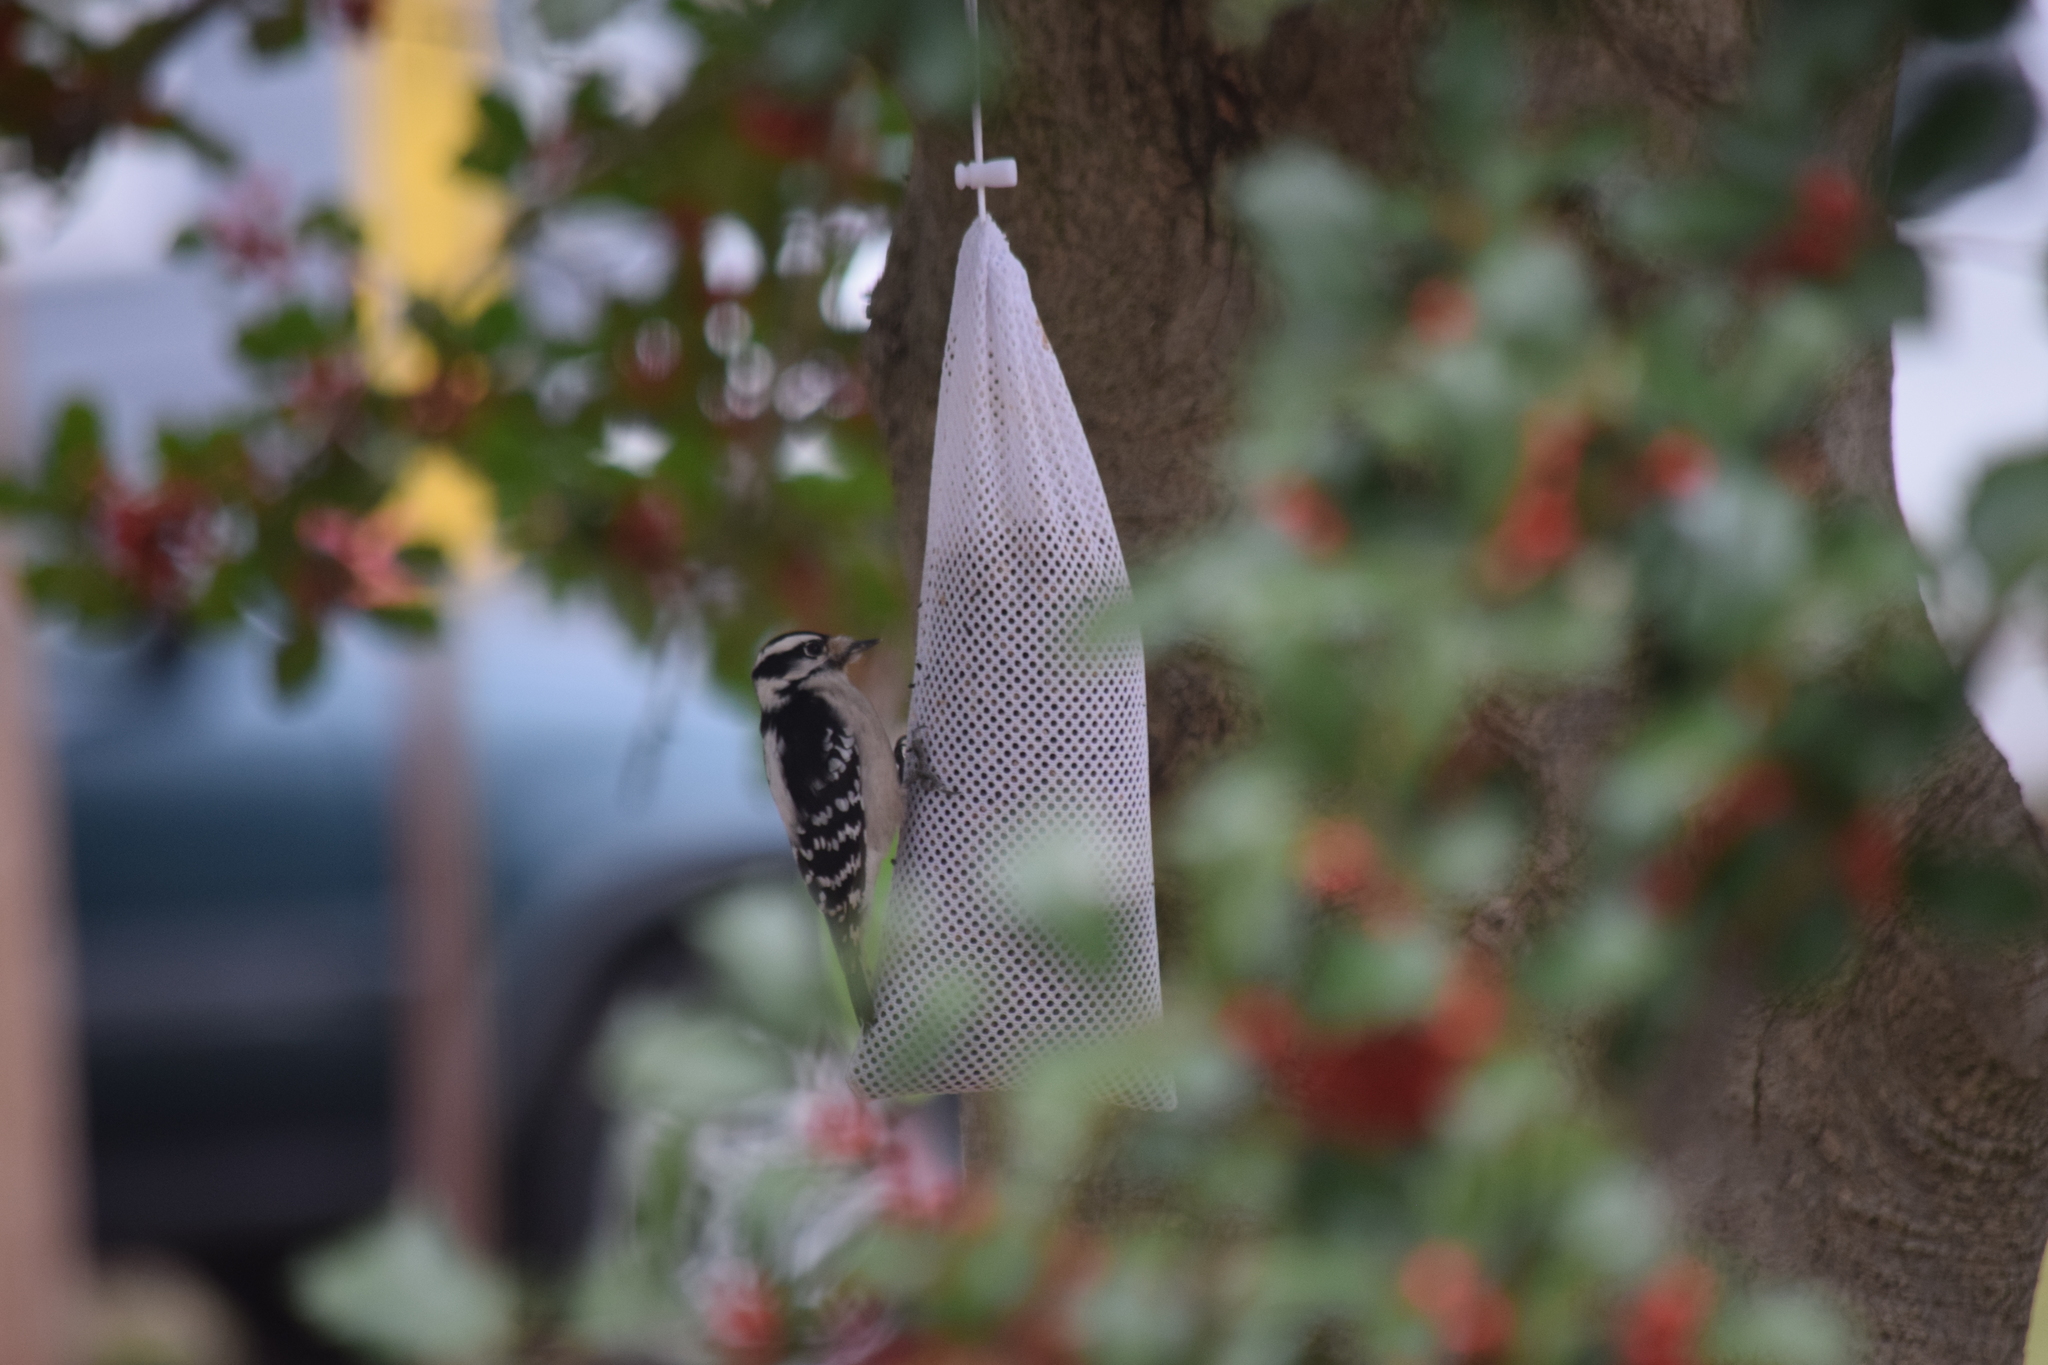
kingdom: Animalia
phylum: Chordata
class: Aves
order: Piciformes
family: Picidae
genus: Dryobates
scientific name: Dryobates pubescens
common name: Downy woodpecker
